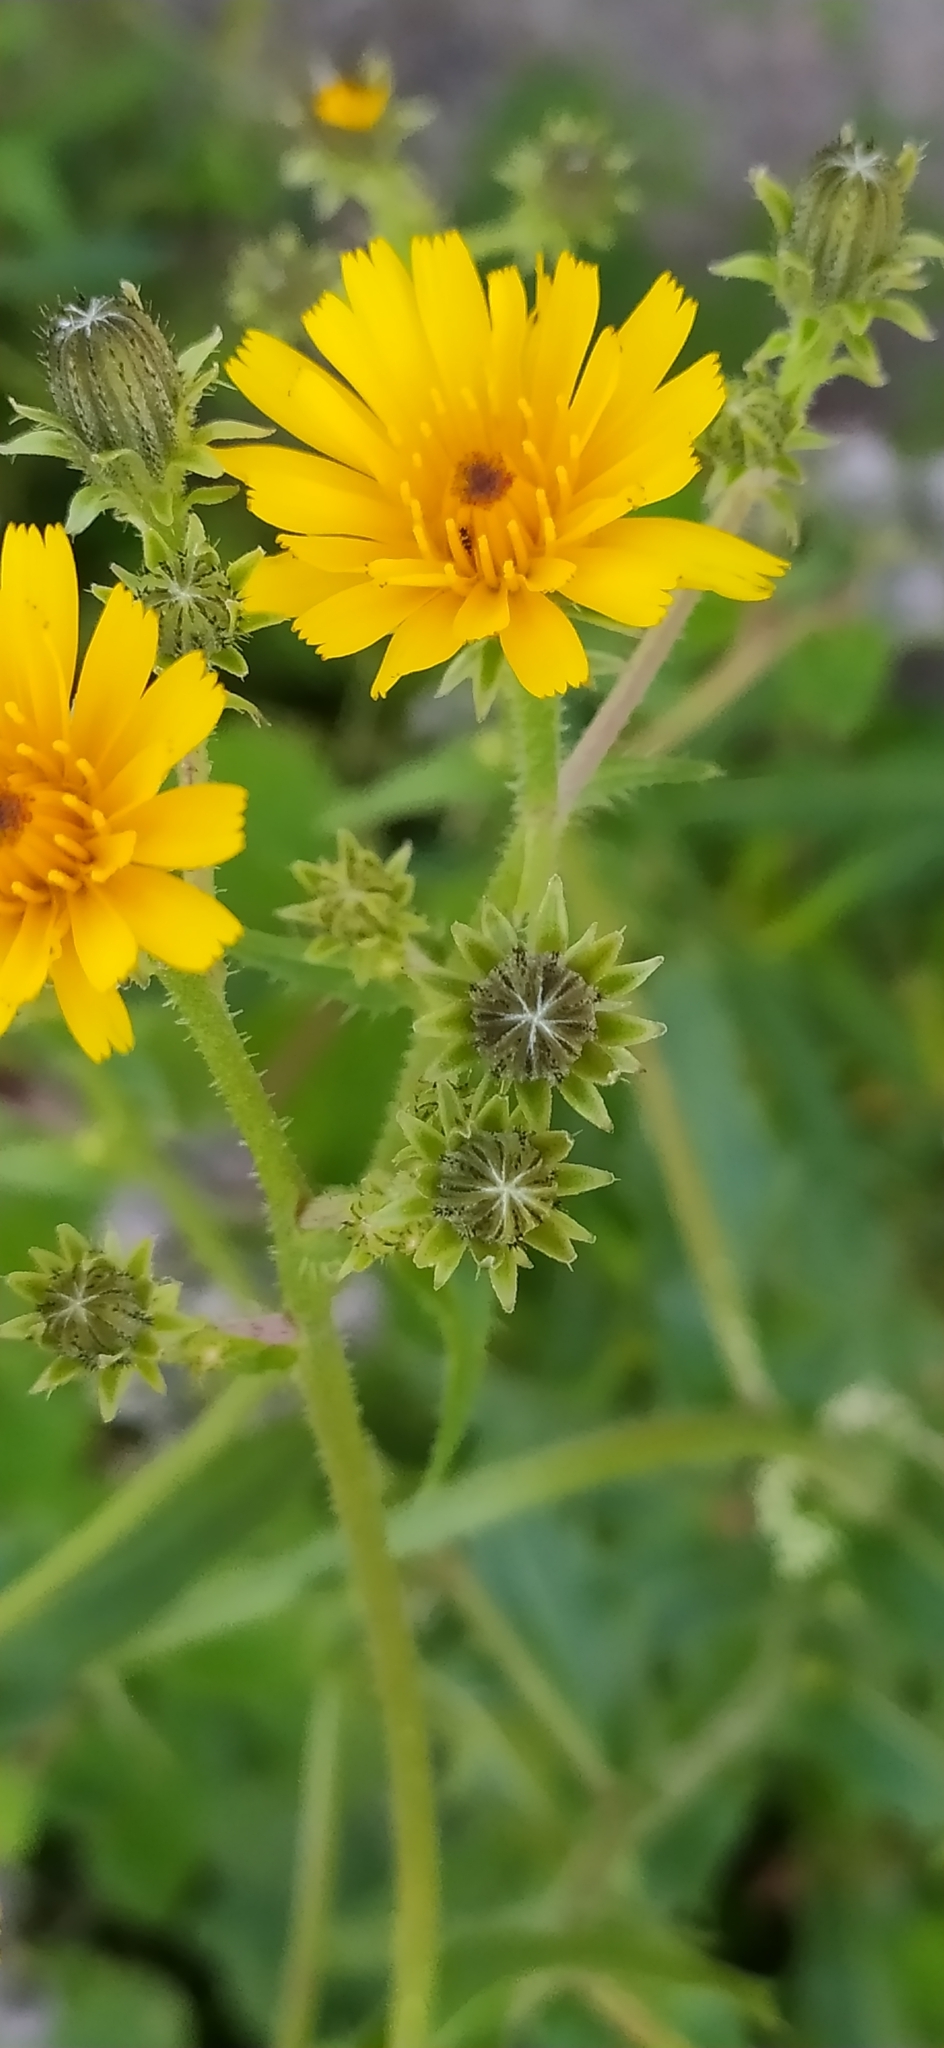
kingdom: Plantae
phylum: Tracheophyta
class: Magnoliopsida
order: Asterales
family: Asteraceae
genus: Picris
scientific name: Picris hieracioides
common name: Hawkweed oxtongue
